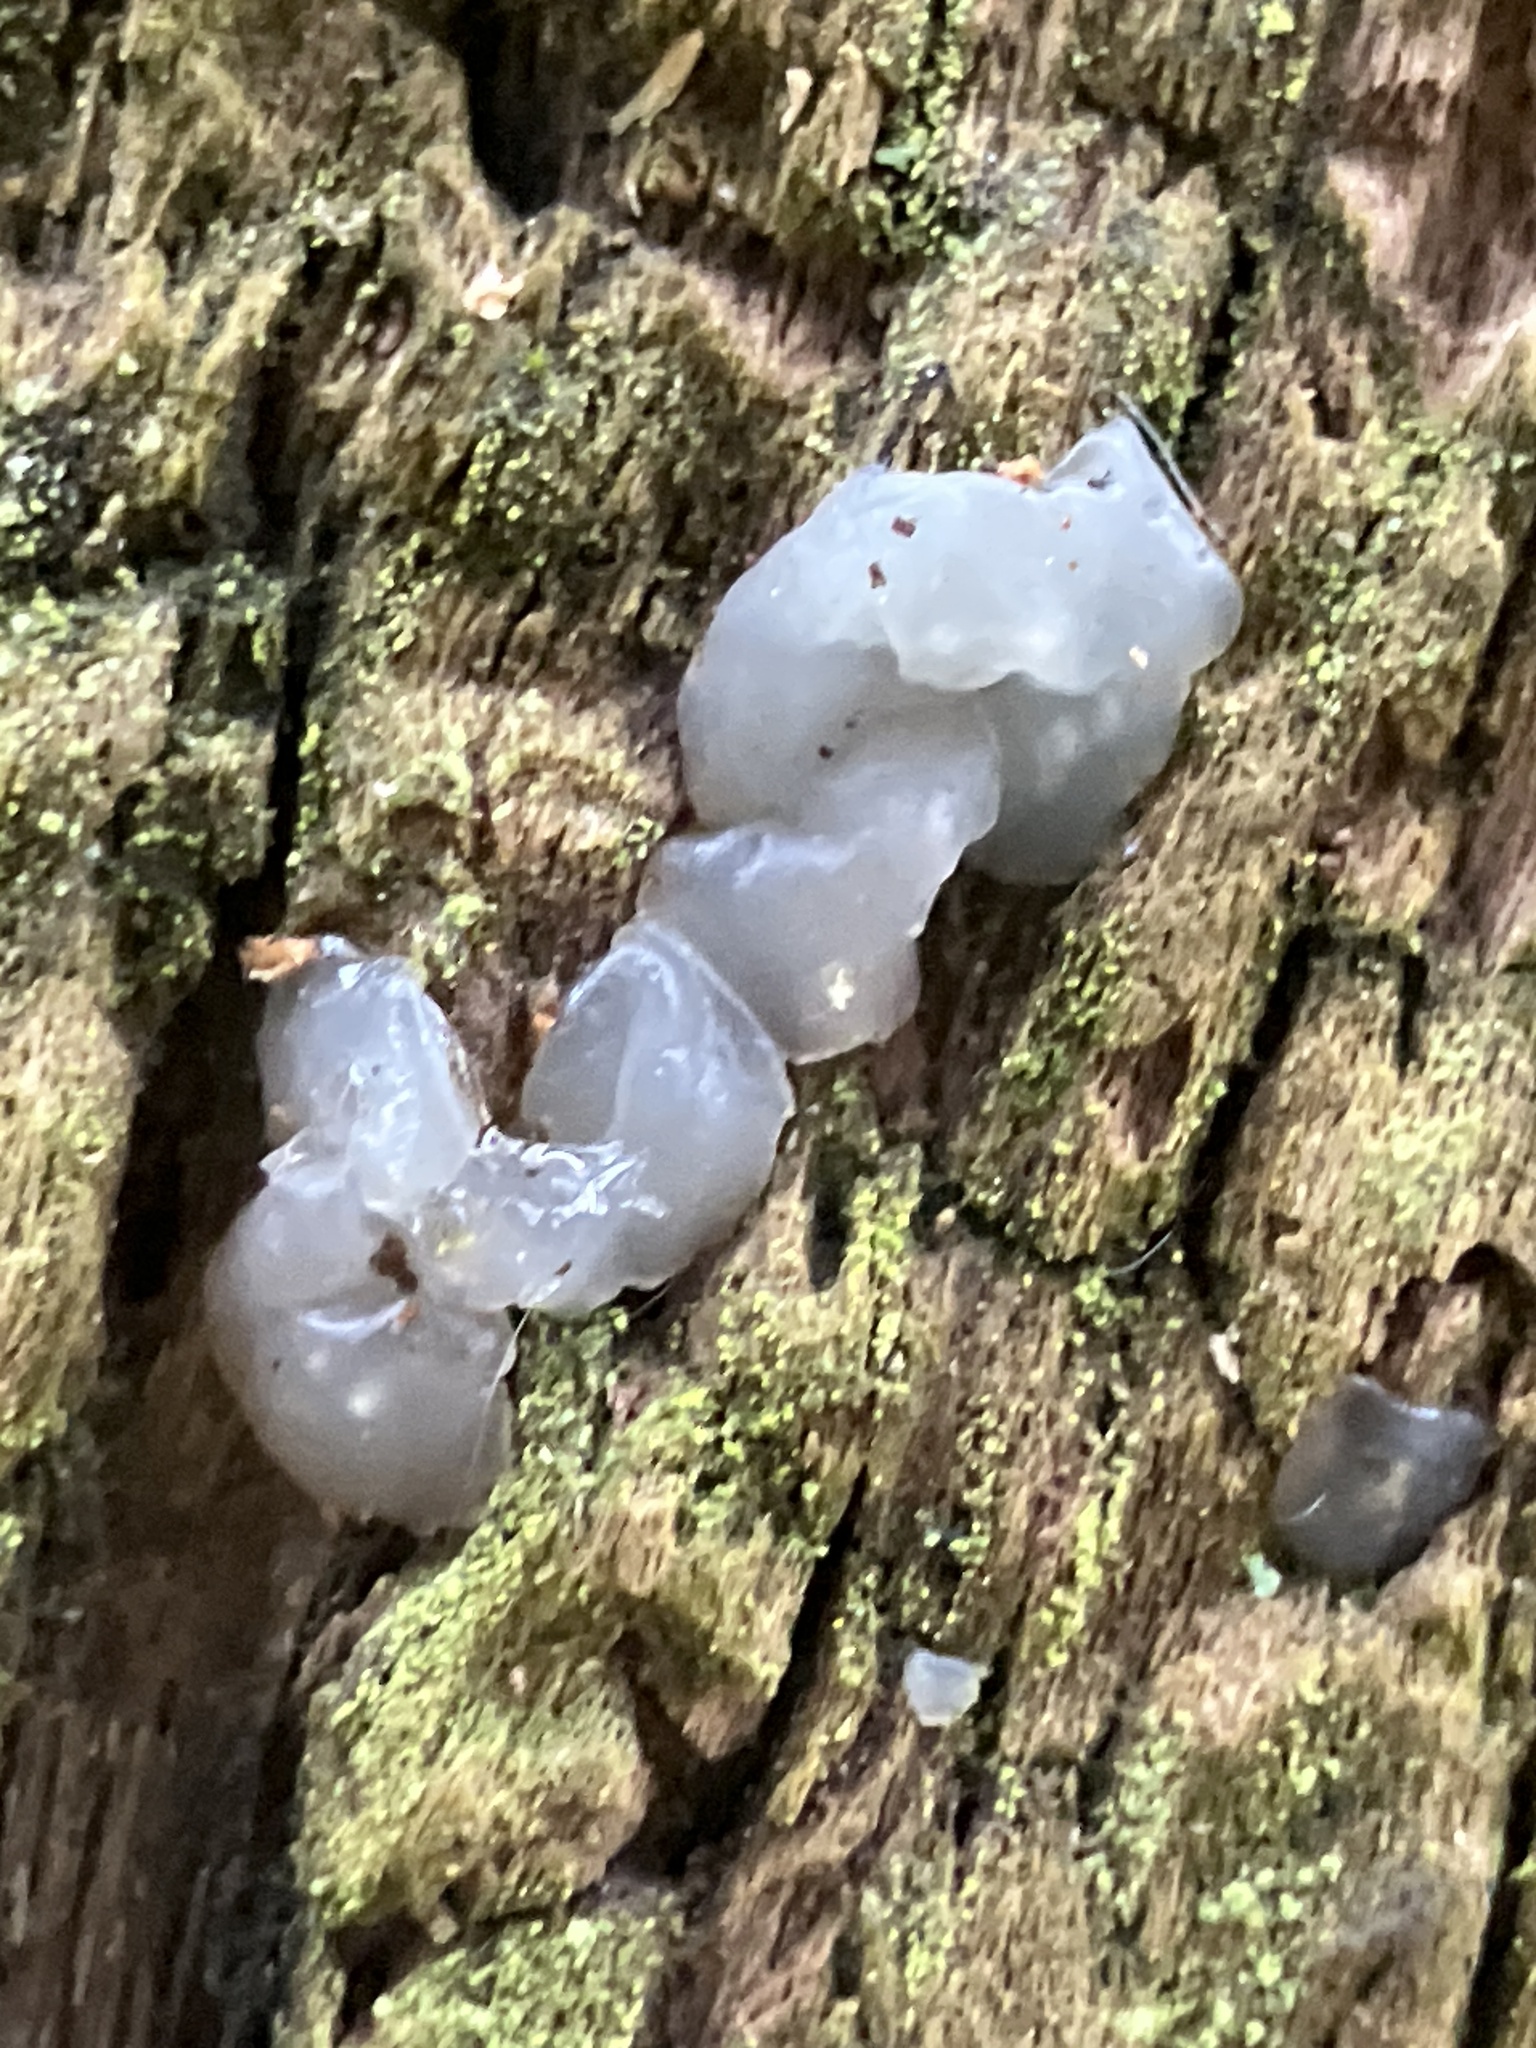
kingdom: Fungi
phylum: Basidiomycota
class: Agaricomycetes
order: Auriculariales
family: Hyaloriaceae
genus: Myxarium
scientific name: Myxarium nucleatum
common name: Crystal brain fungus
